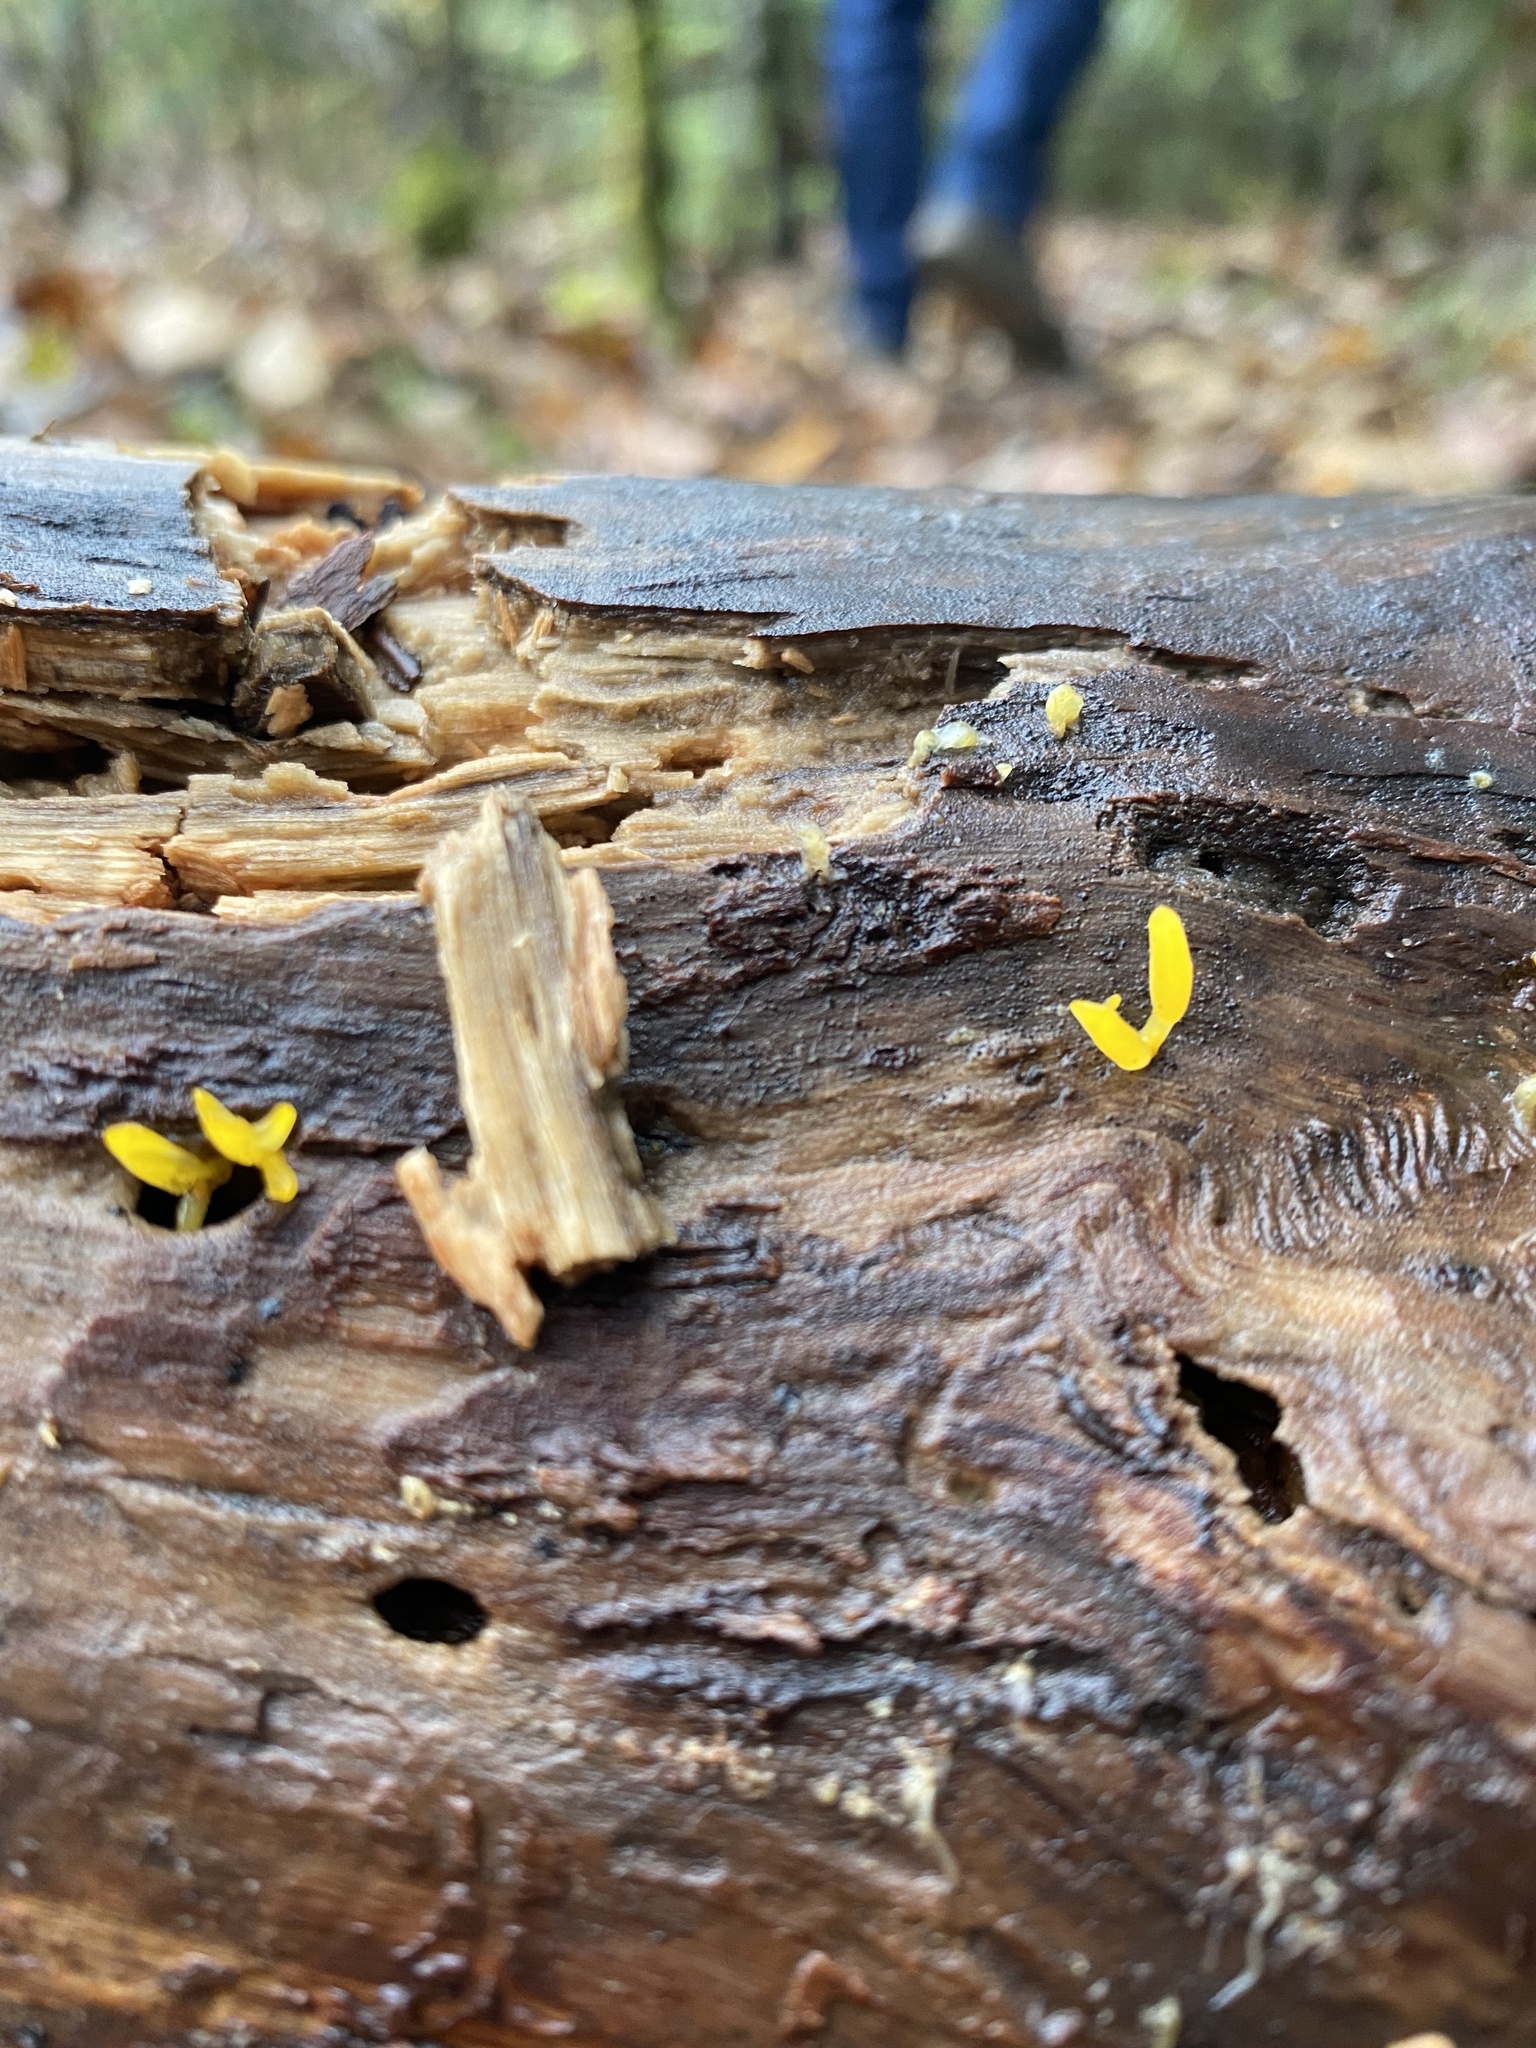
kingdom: Fungi
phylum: Basidiomycota
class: Dacrymycetes
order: Dacrymycetales
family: Dacrymycetaceae
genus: Calocera
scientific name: Calocera cornea
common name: Small stagshorn
